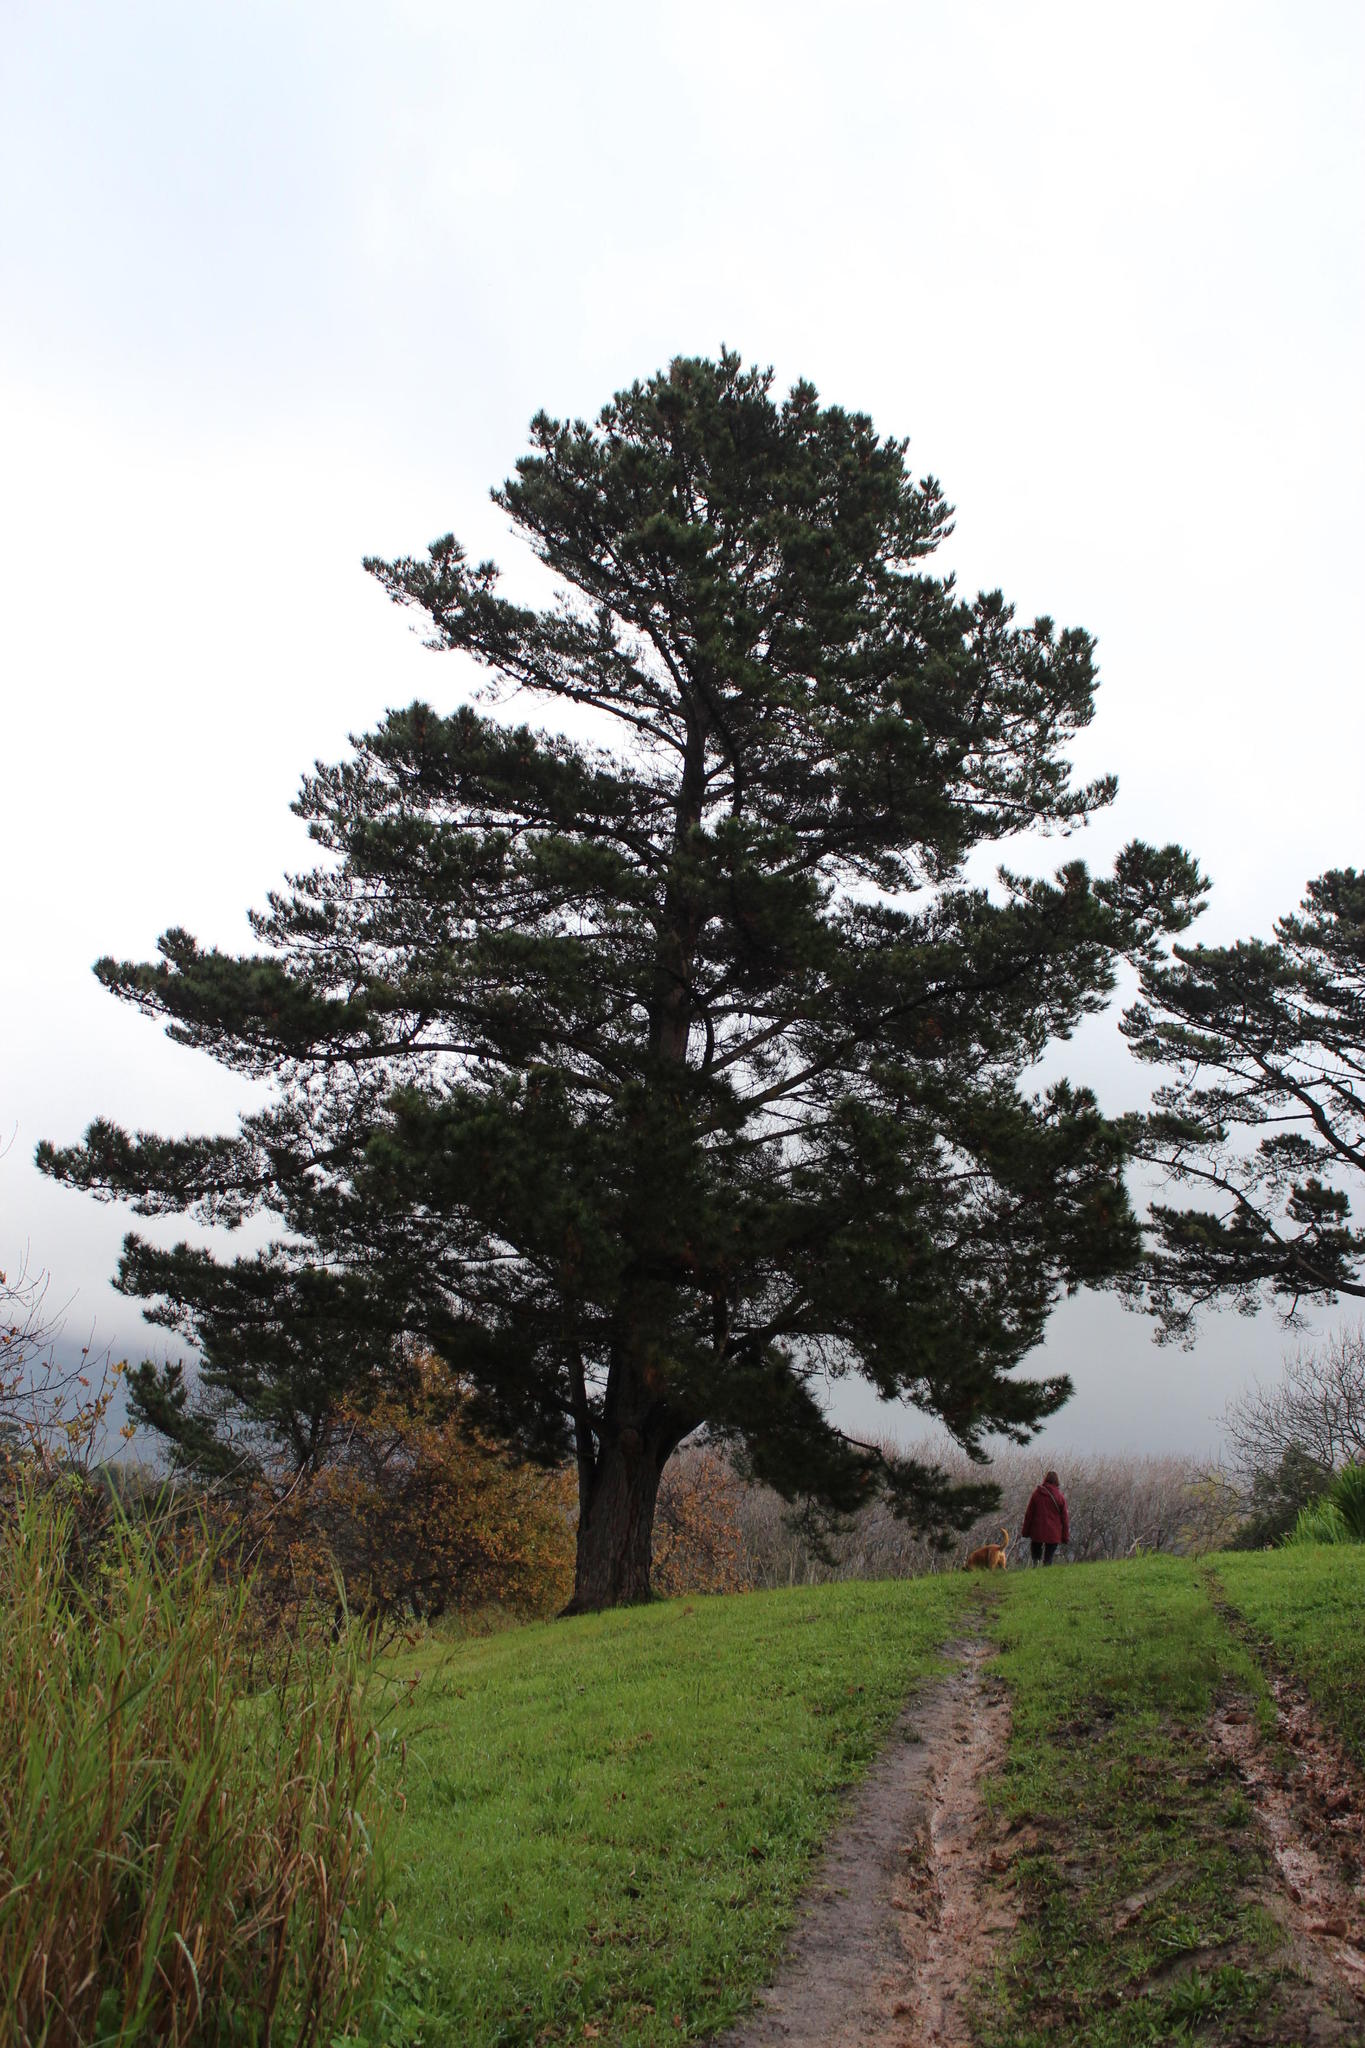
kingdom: Plantae
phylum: Tracheophyta
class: Pinopsida
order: Pinales
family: Pinaceae
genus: Pinus
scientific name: Pinus radiata
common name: Monterey pine
